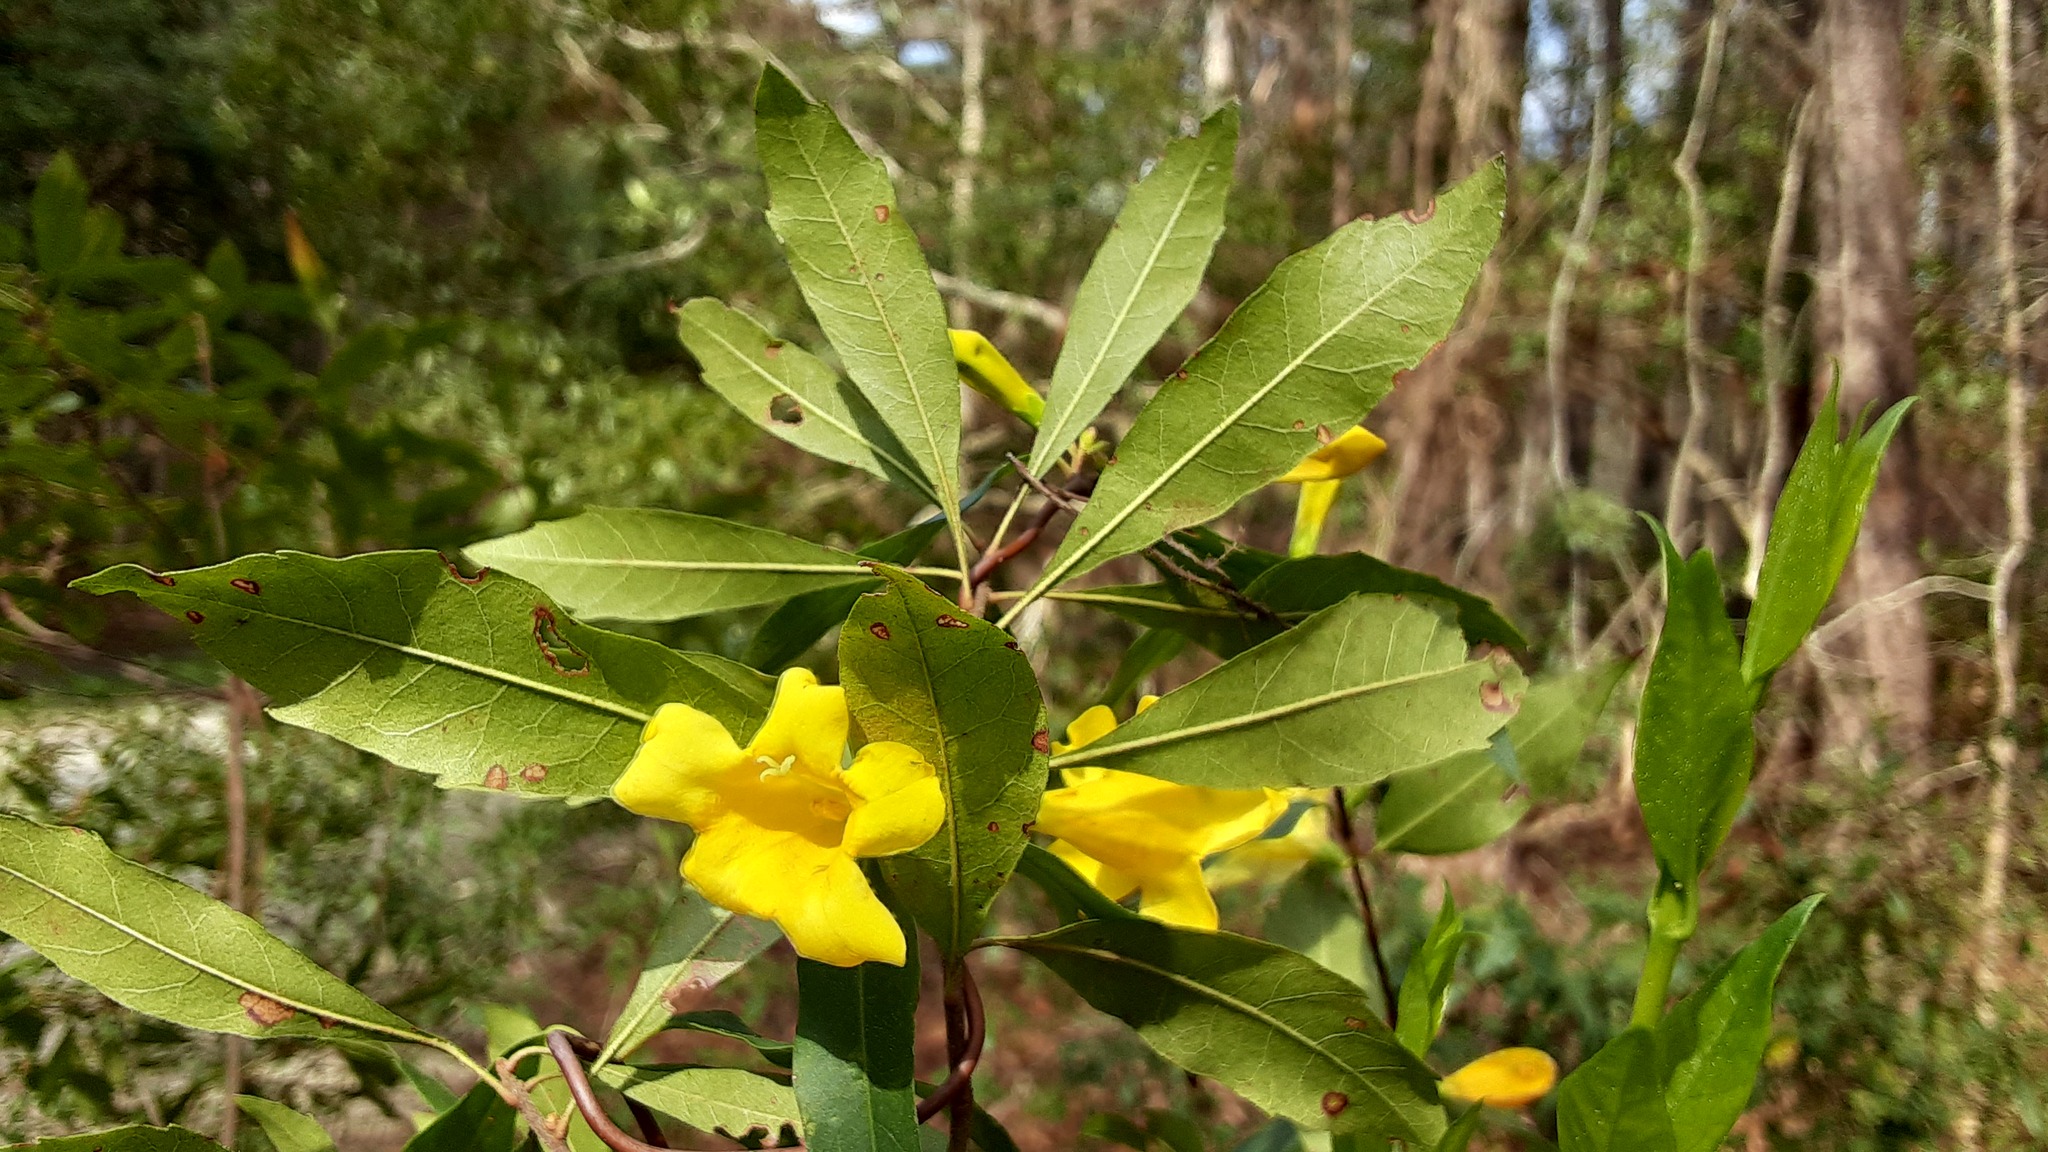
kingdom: Plantae
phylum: Tracheophyta
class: Magnoliopsida
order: Gentianales
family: Gelsemiaceae
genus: Gelsemium
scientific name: Gelsemium sempervirens
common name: Carolina-jasmine
